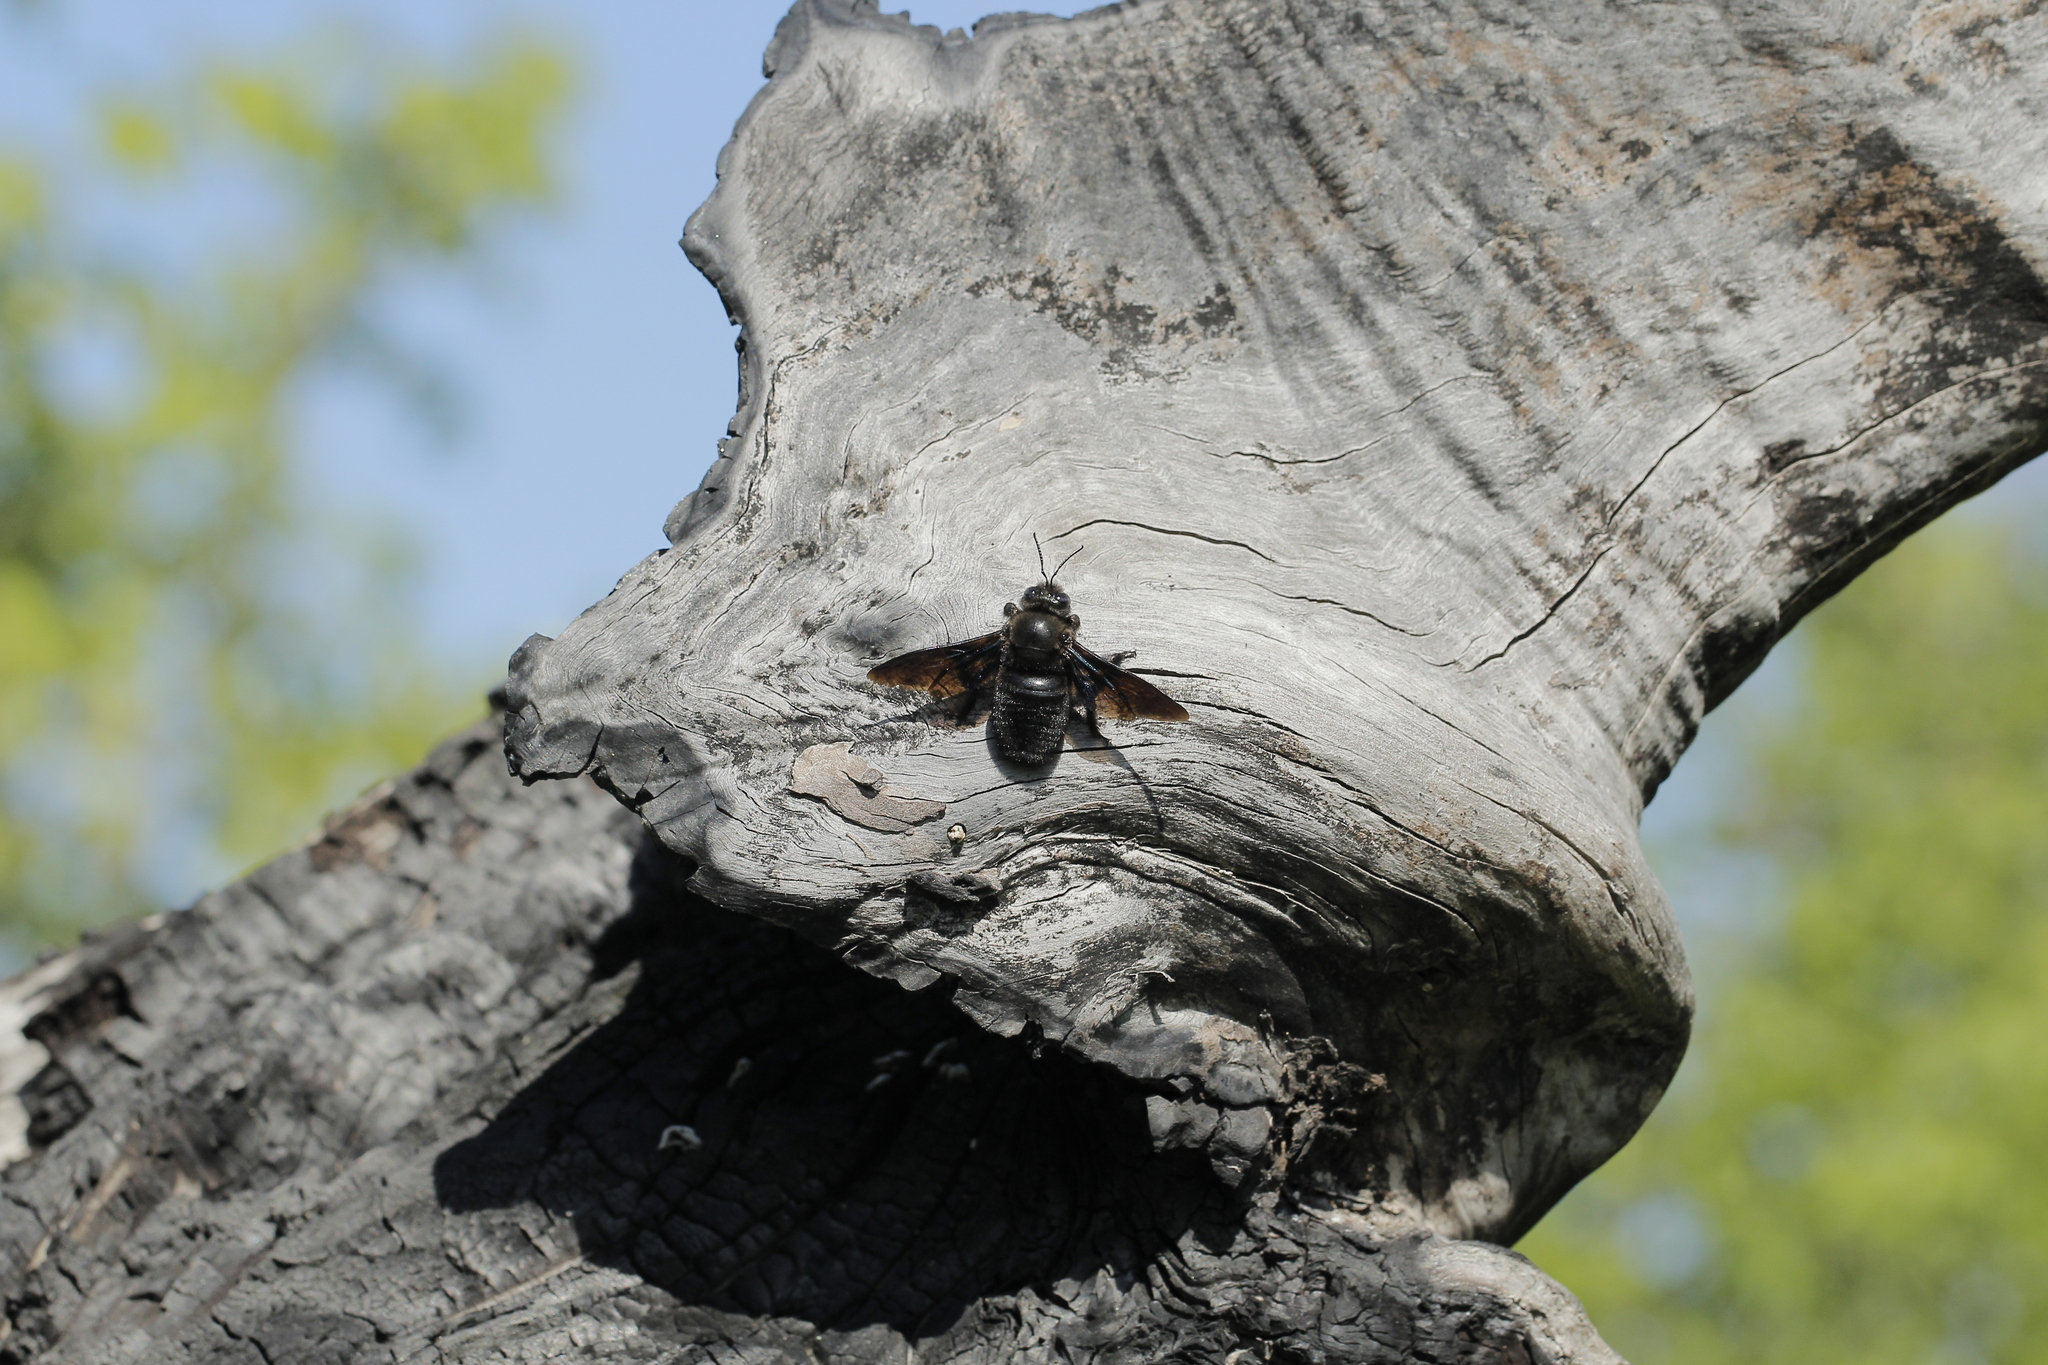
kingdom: Animalia
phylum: Arthropoda
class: Insecta
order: Hymenoptera
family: Apidae
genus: Xylocopa
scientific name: Xylocopa valga
